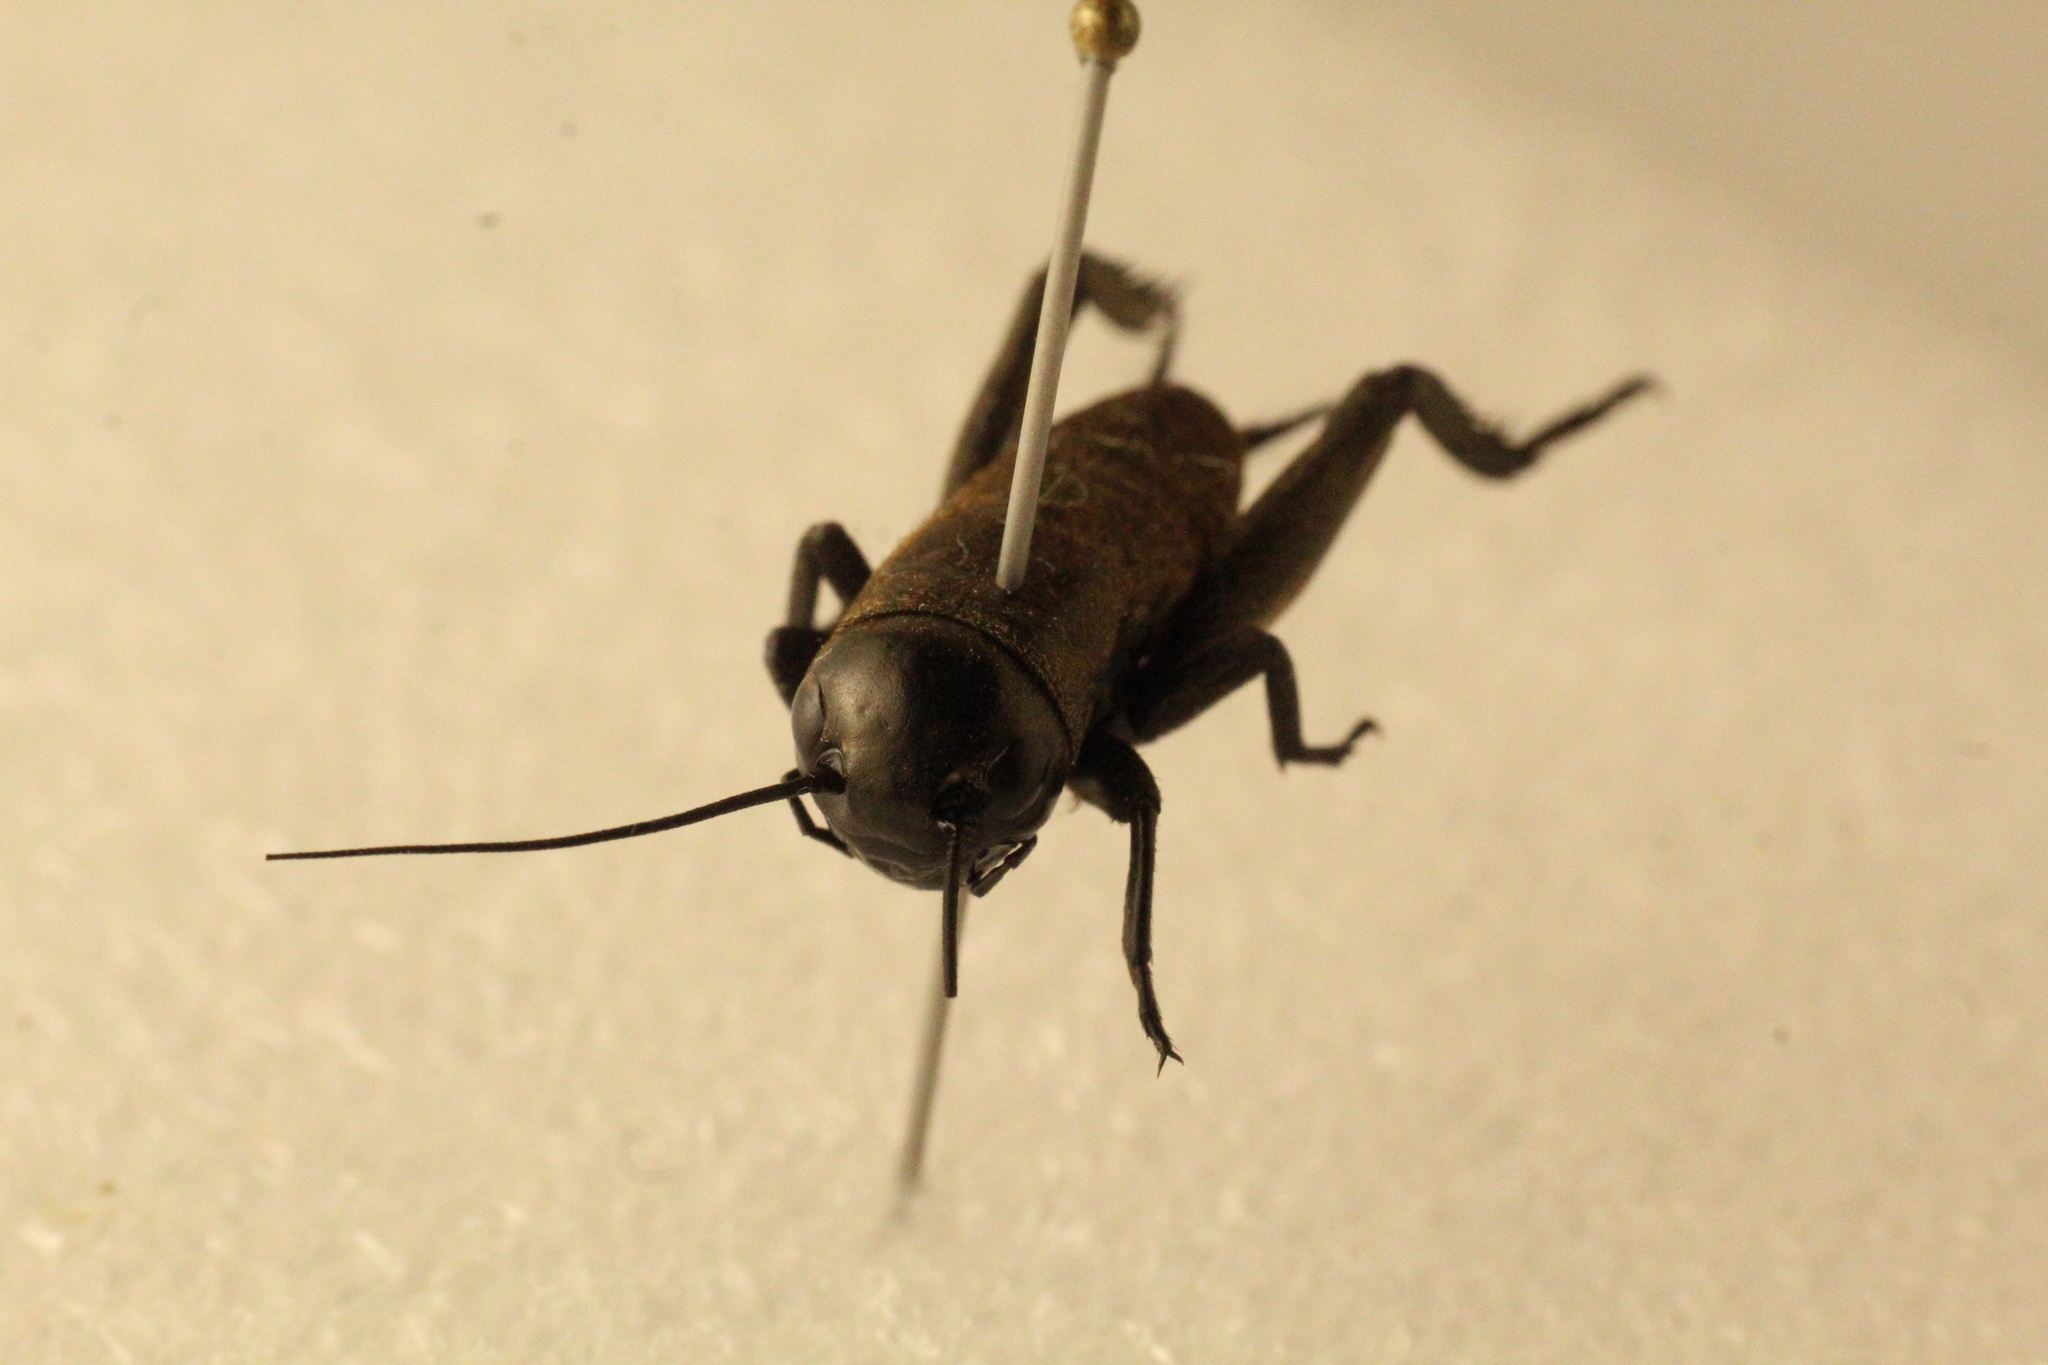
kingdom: Animalia
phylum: Arthropoda
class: Insecta
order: Orthoptera
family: Gryllidae
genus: Gryllus
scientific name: Gryllus campestris
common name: Field cricket
